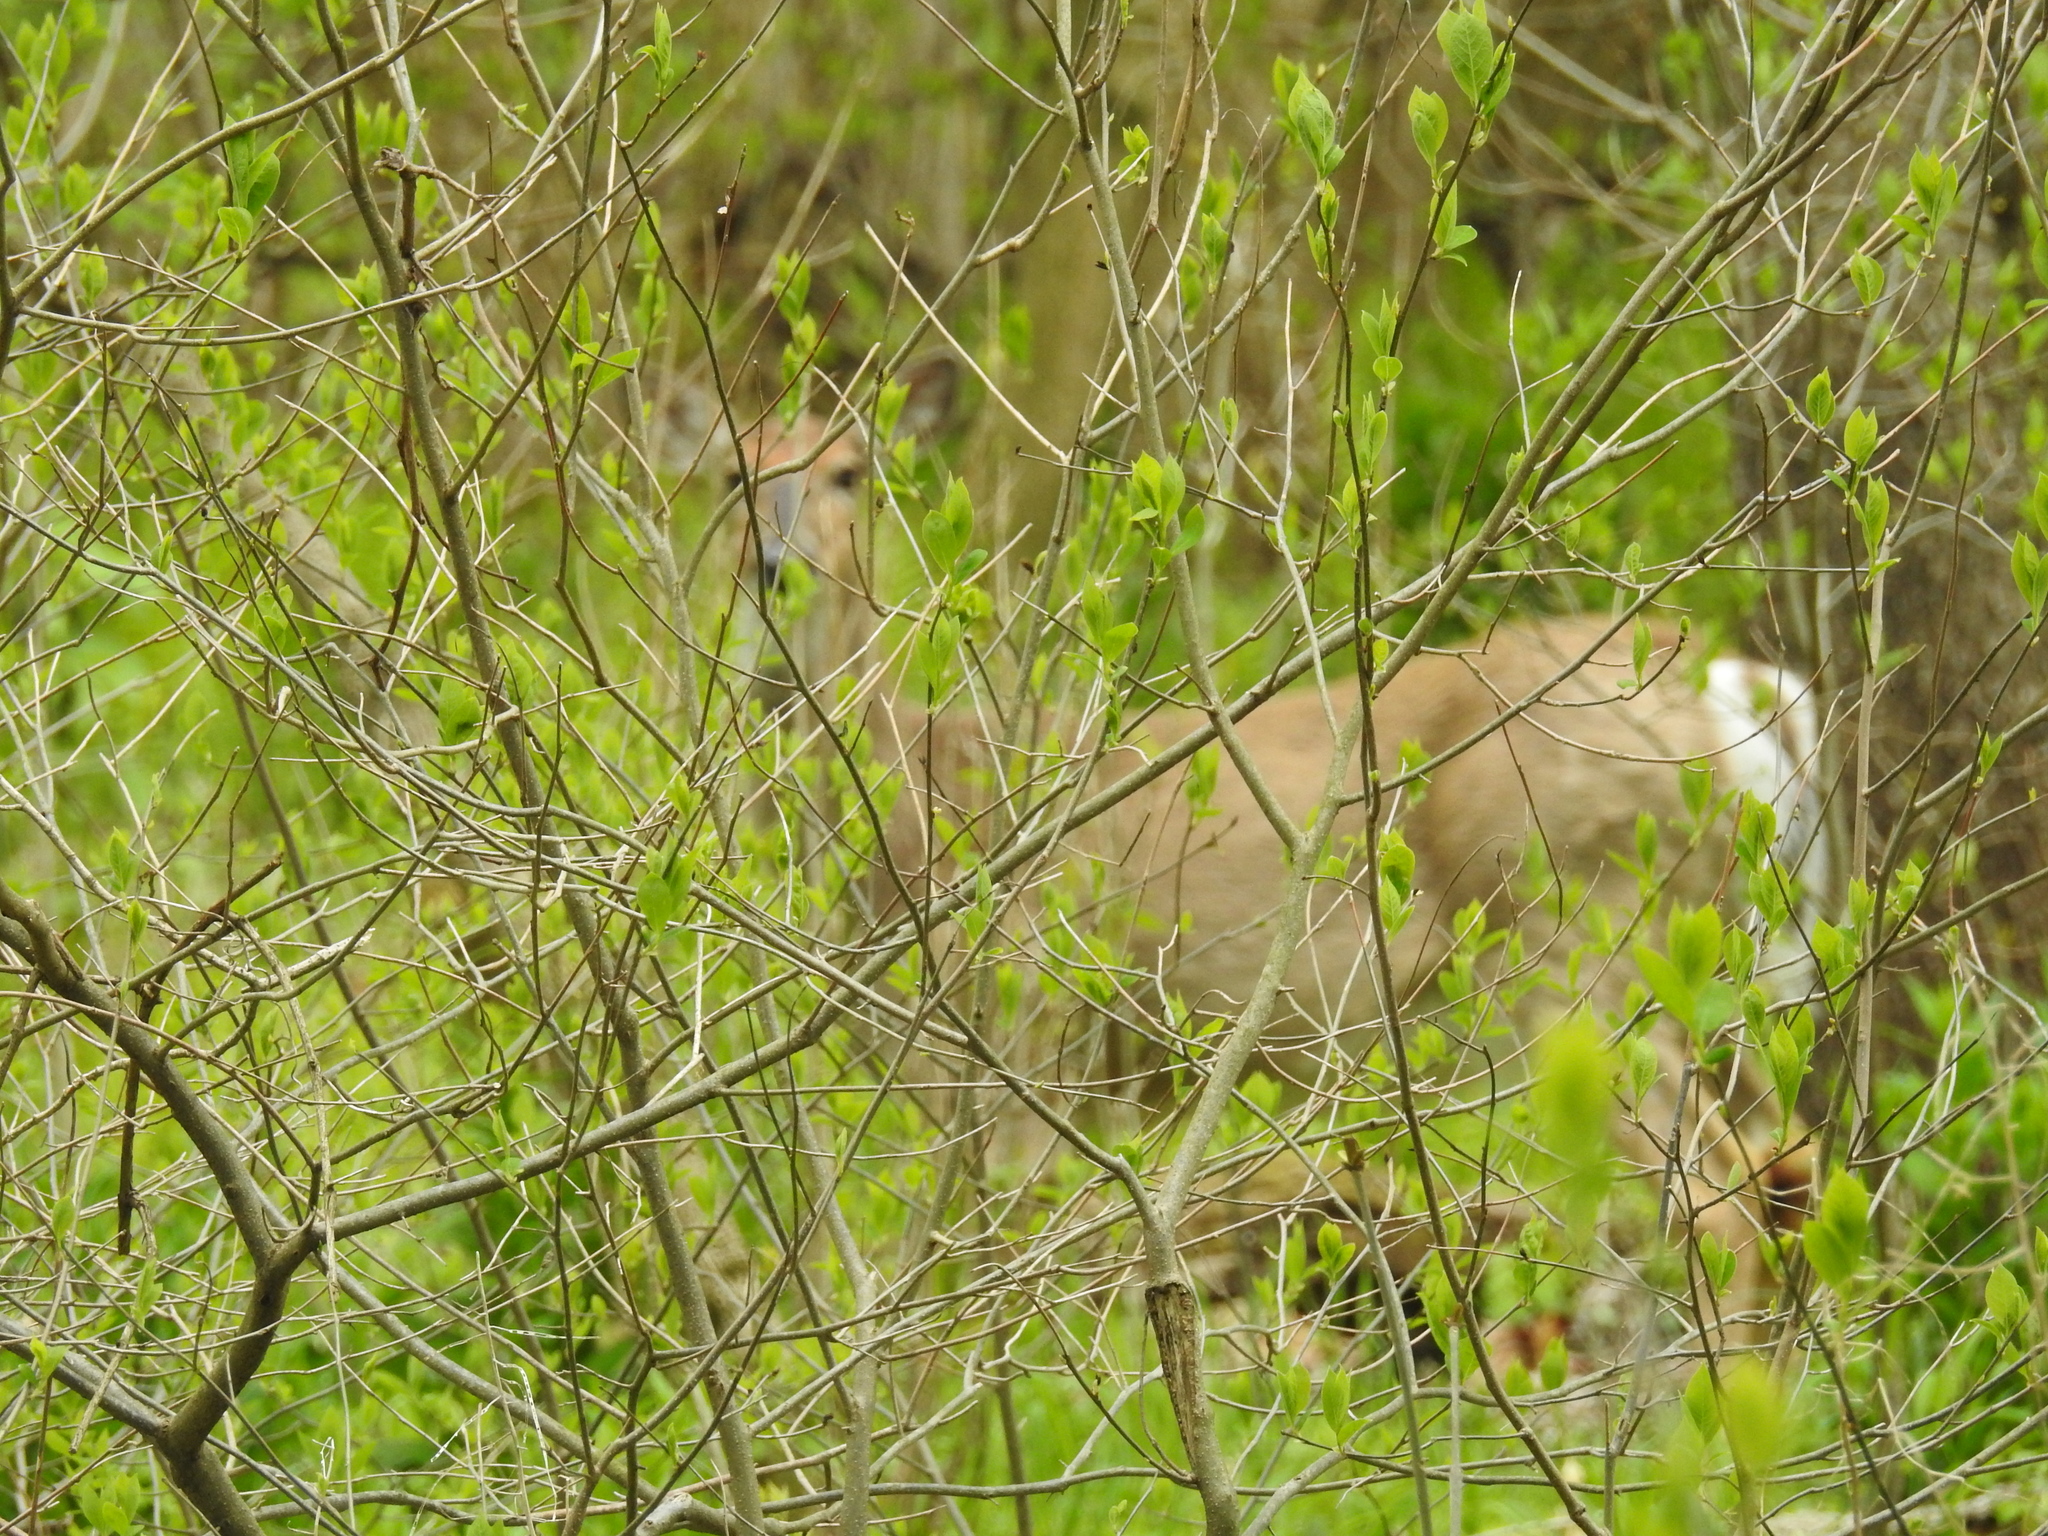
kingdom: Animalia
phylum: Chordata
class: Mammalia
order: Artiodactyla
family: Cervidae
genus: Odocoileus
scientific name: Odocoileus virginianus
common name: White-tailed deer
